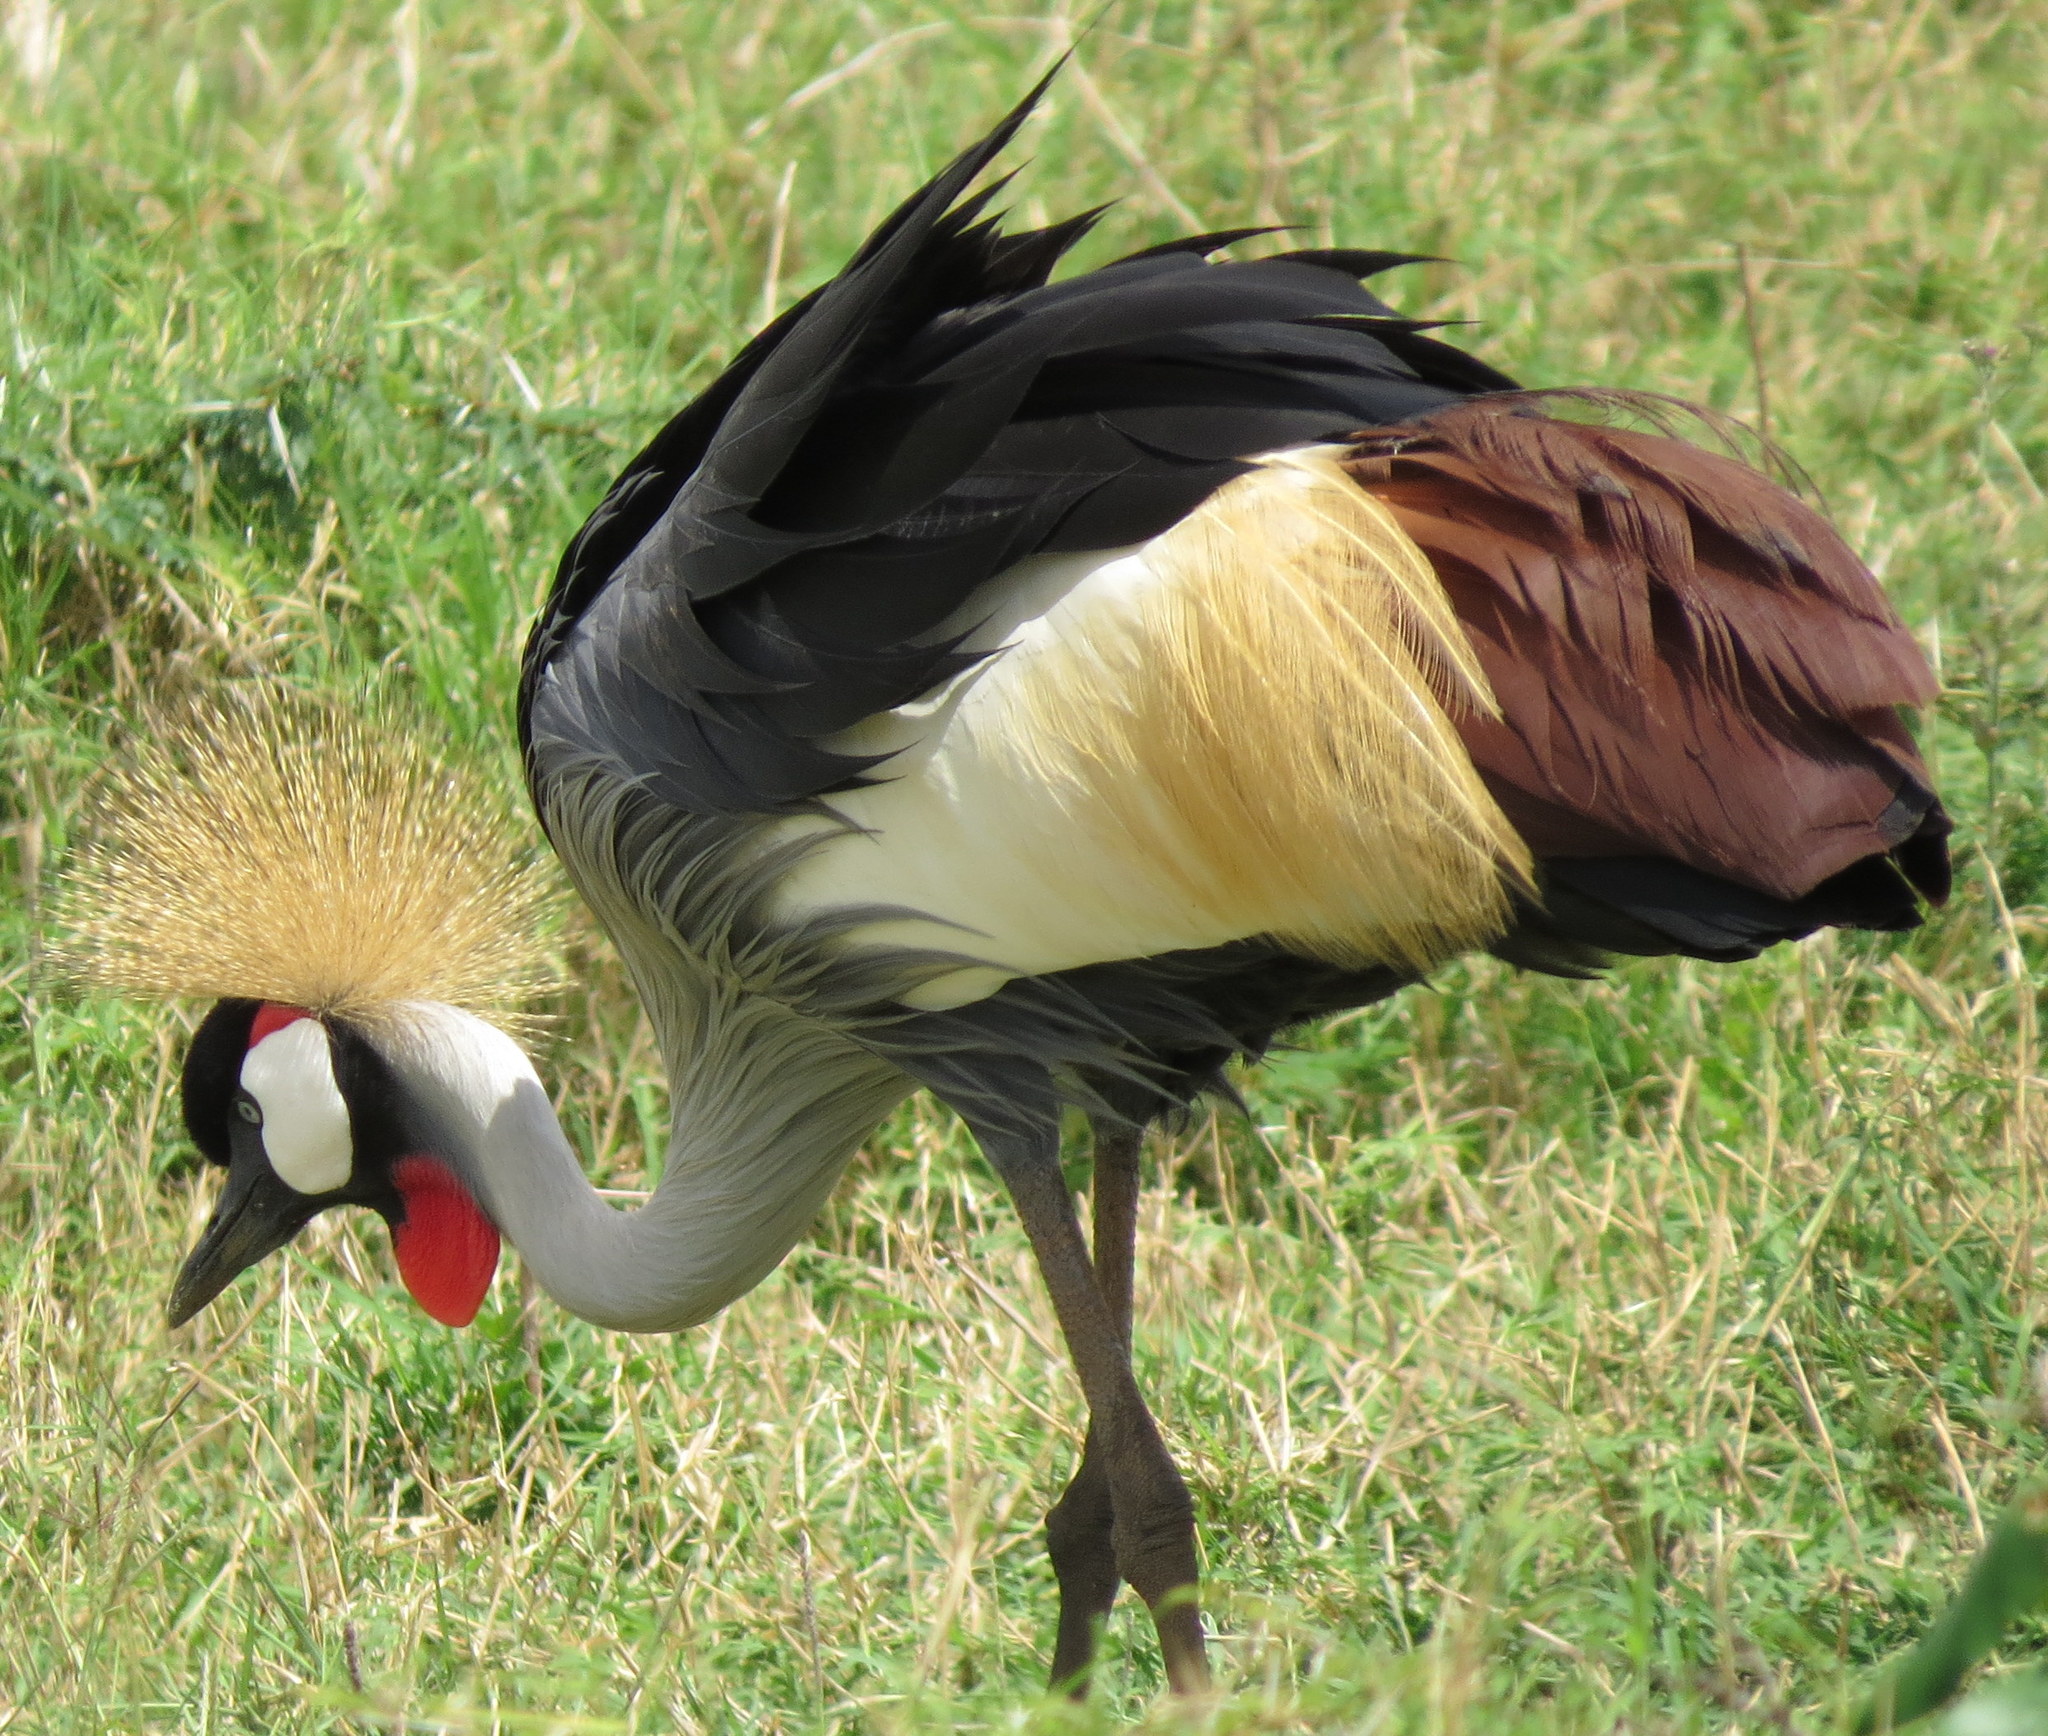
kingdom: Animalia
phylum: Chordata
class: Aves
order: Gruiformes
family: Gruidae
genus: Balearica
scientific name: Balearica regulorum
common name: Grey crowned crane
